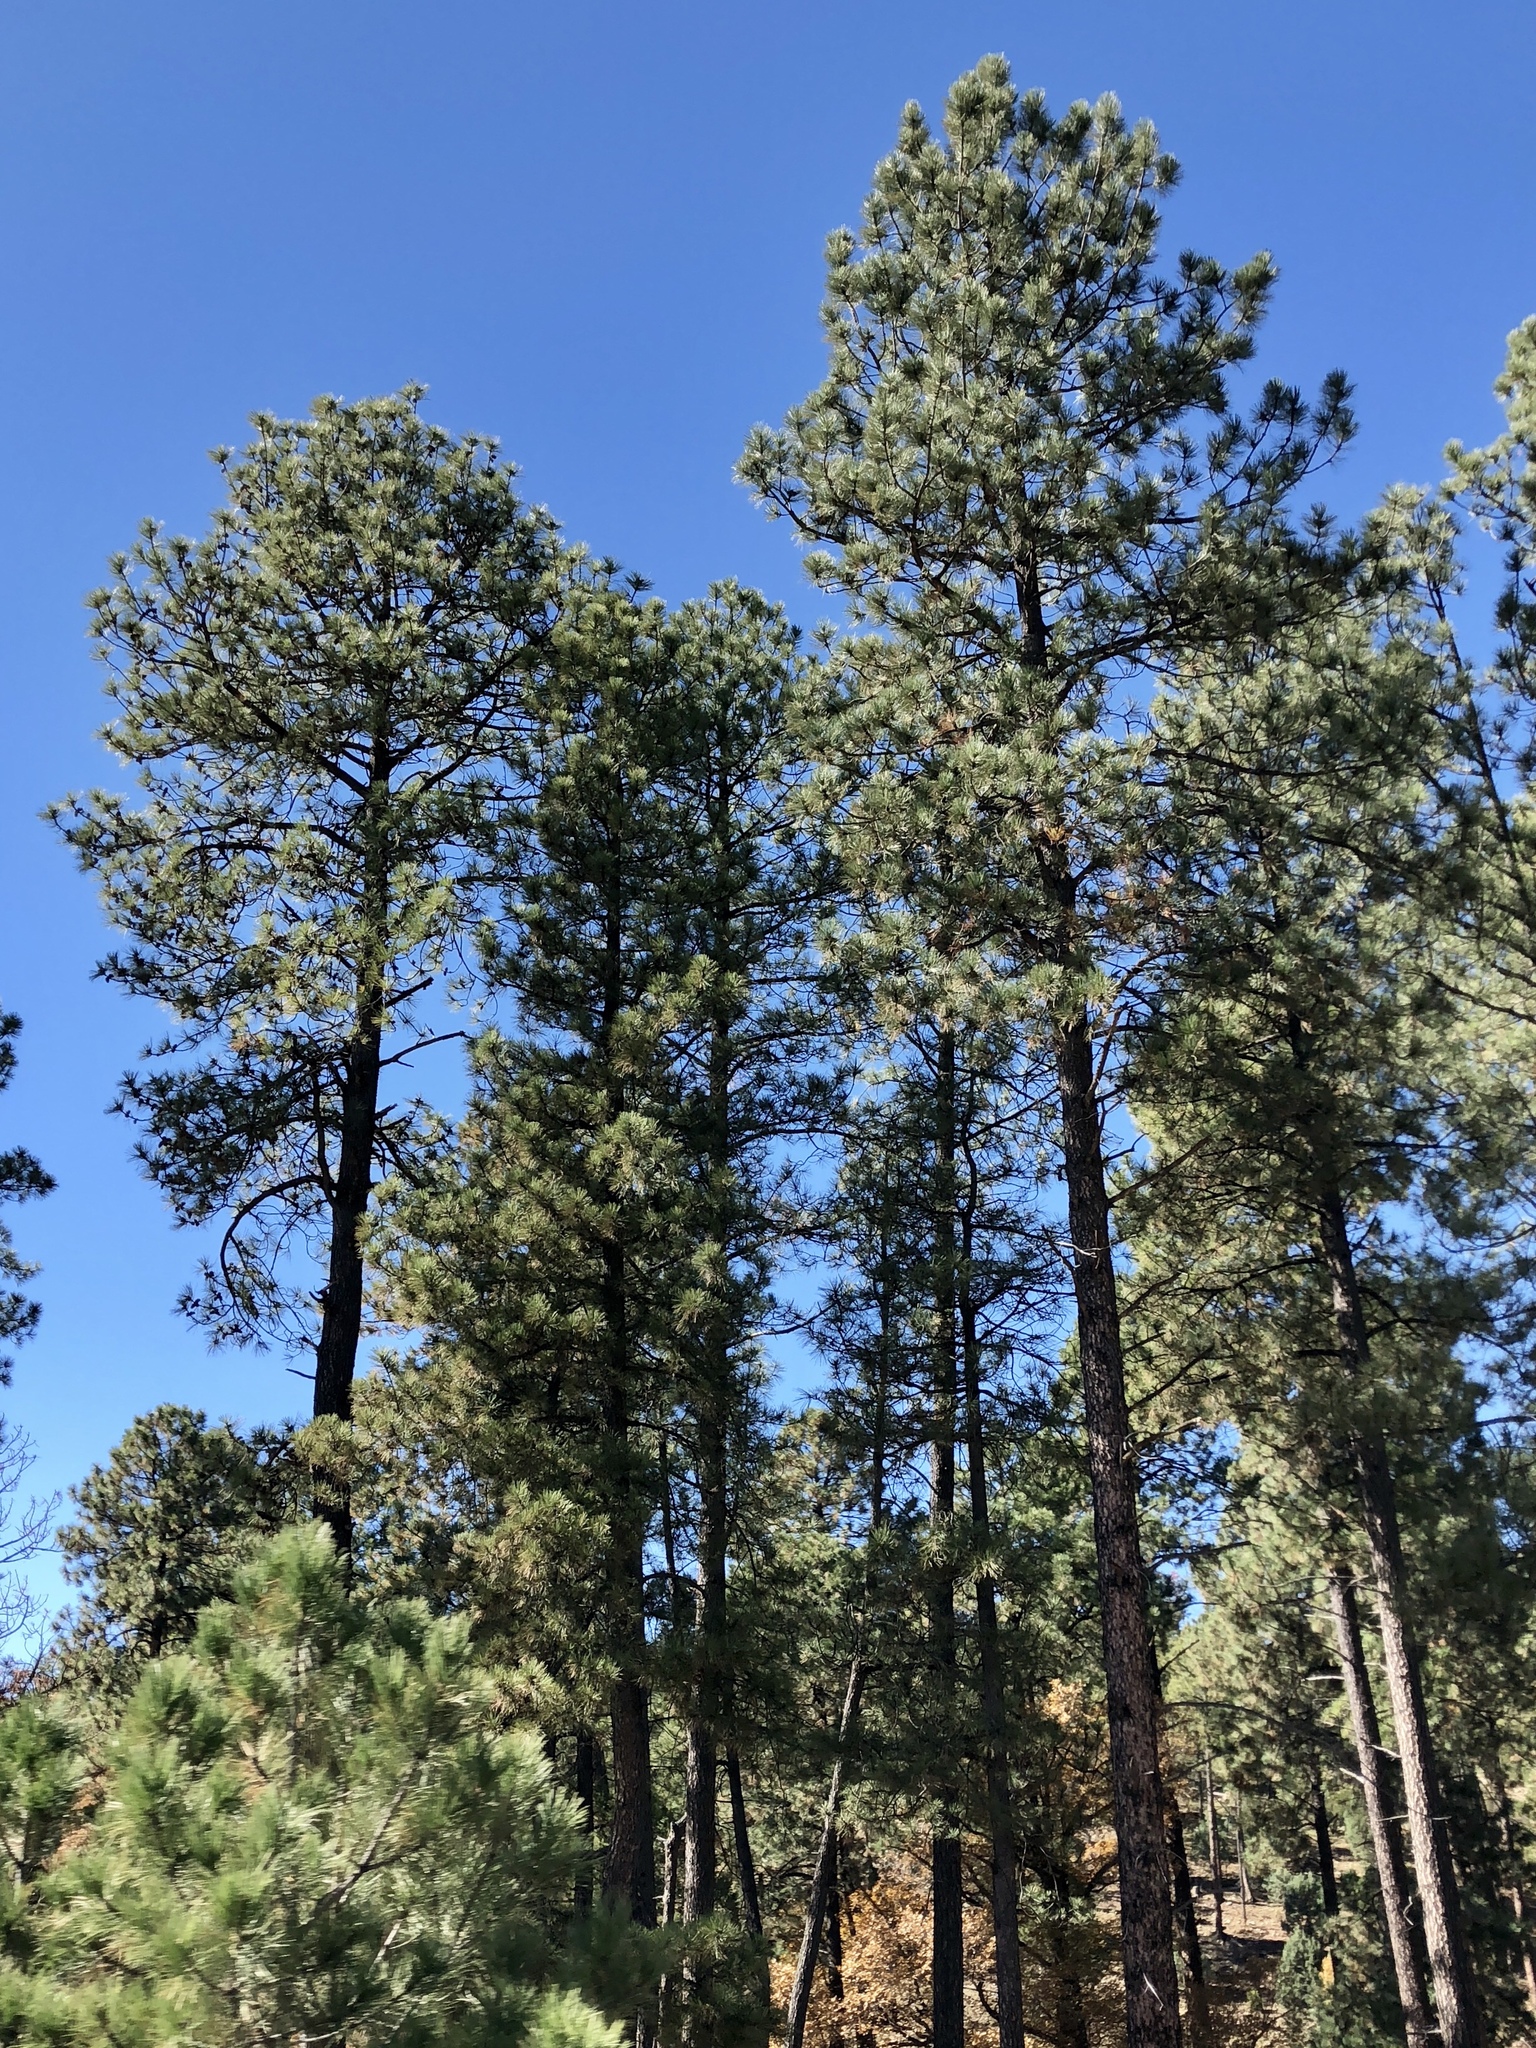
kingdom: Plantae
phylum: Tracheophyta
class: Pinopsida
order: Pinales
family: Pinaceae
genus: Pinus
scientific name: Pinus ponderosa
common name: Western yellow-pine
